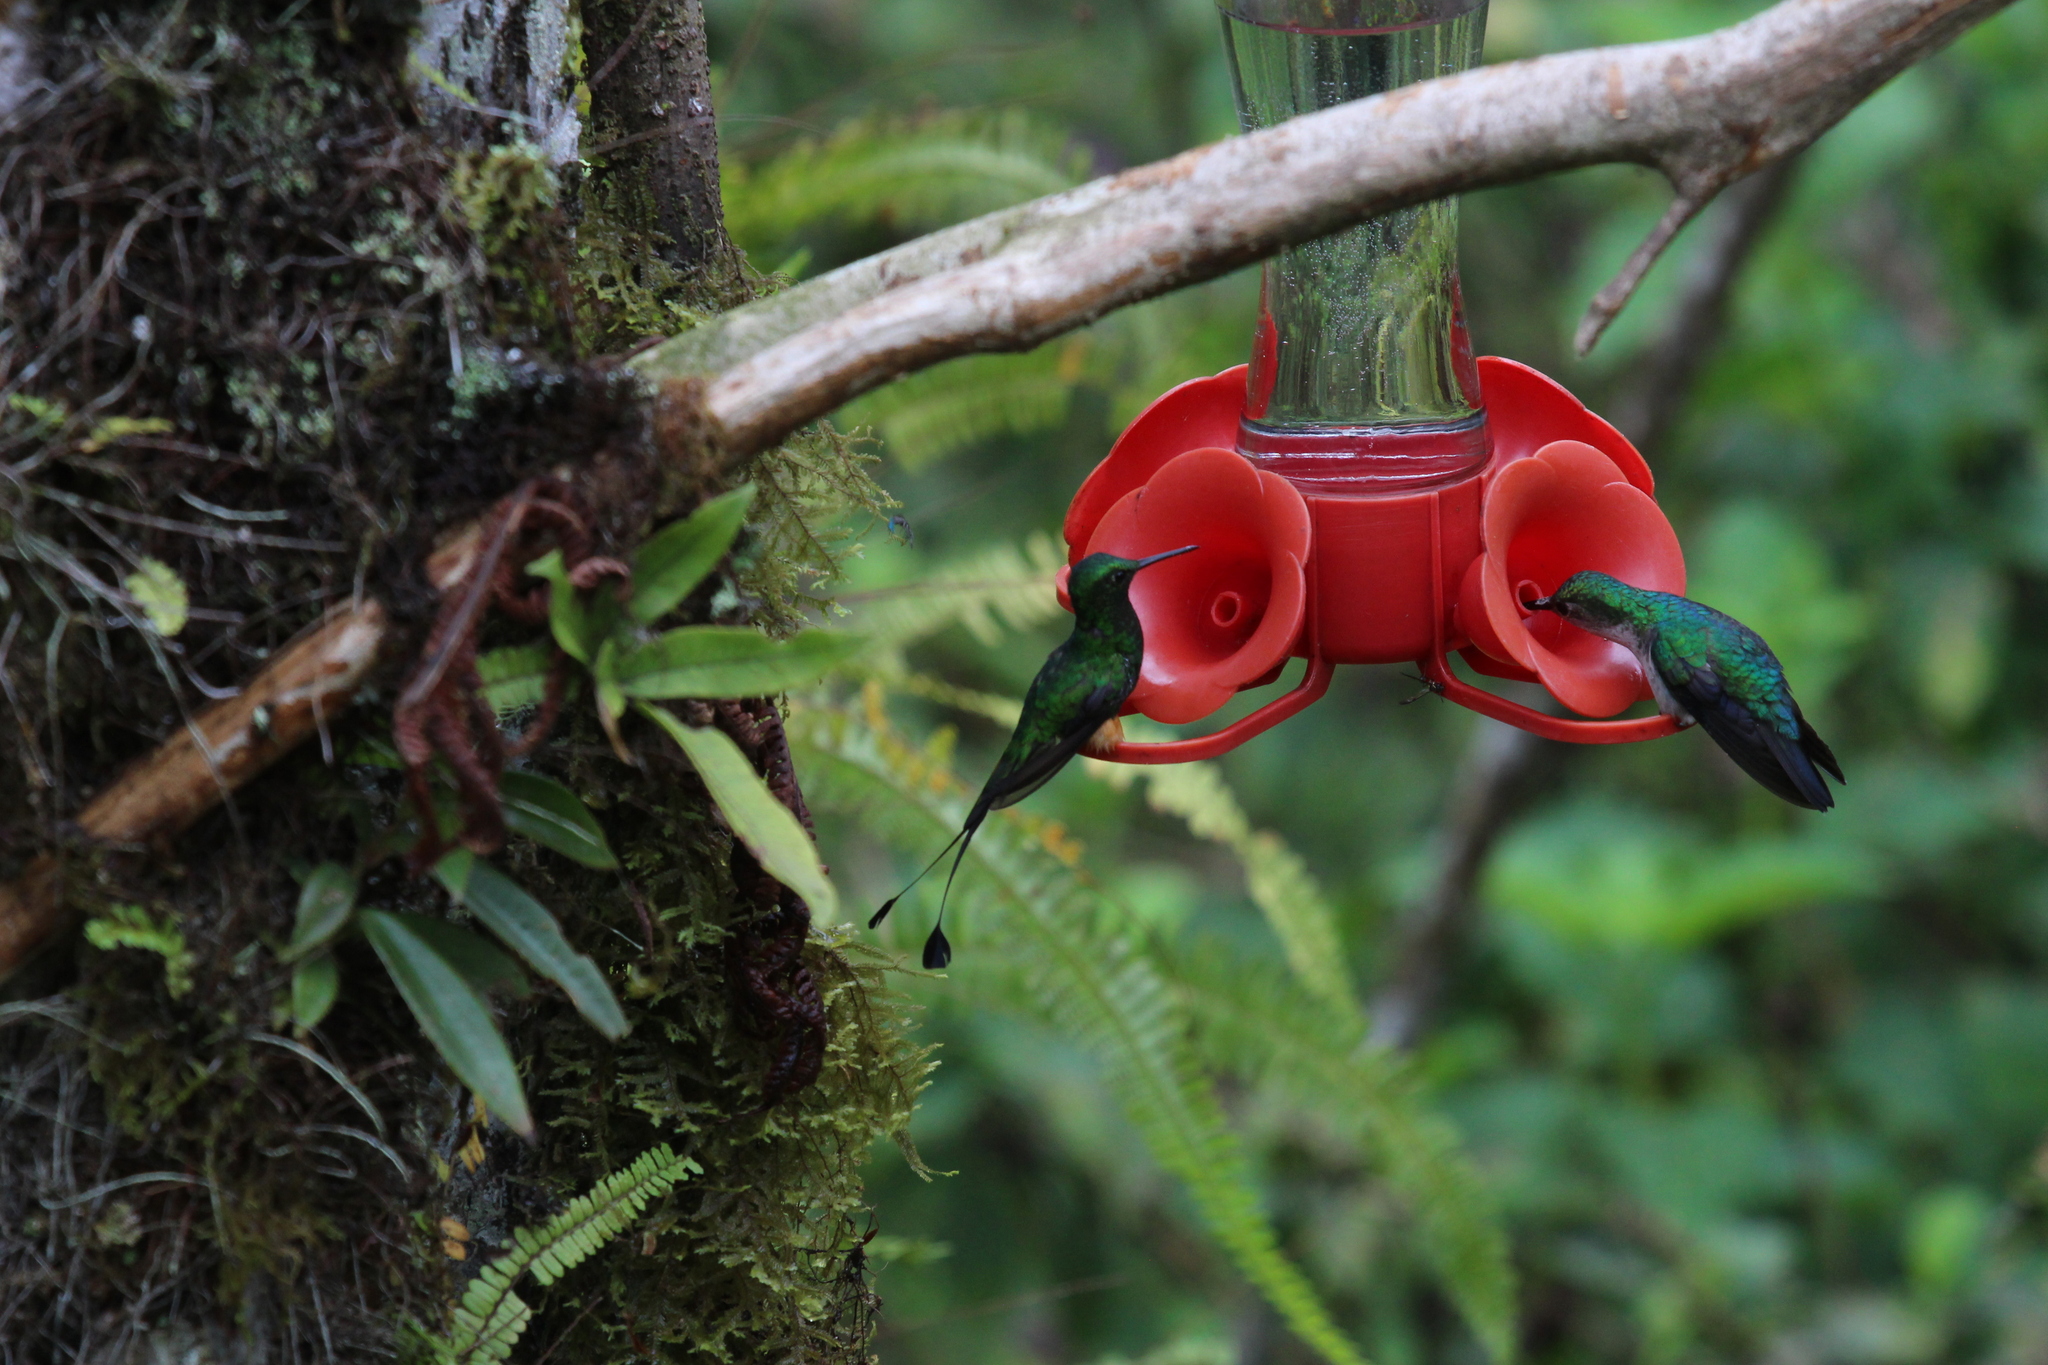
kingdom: Animalia
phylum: Chordata
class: Aves
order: Apodiformes
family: Trochilidae
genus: Ocreatus
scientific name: Ocreatus addae
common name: Rufous-booted racket-tail
